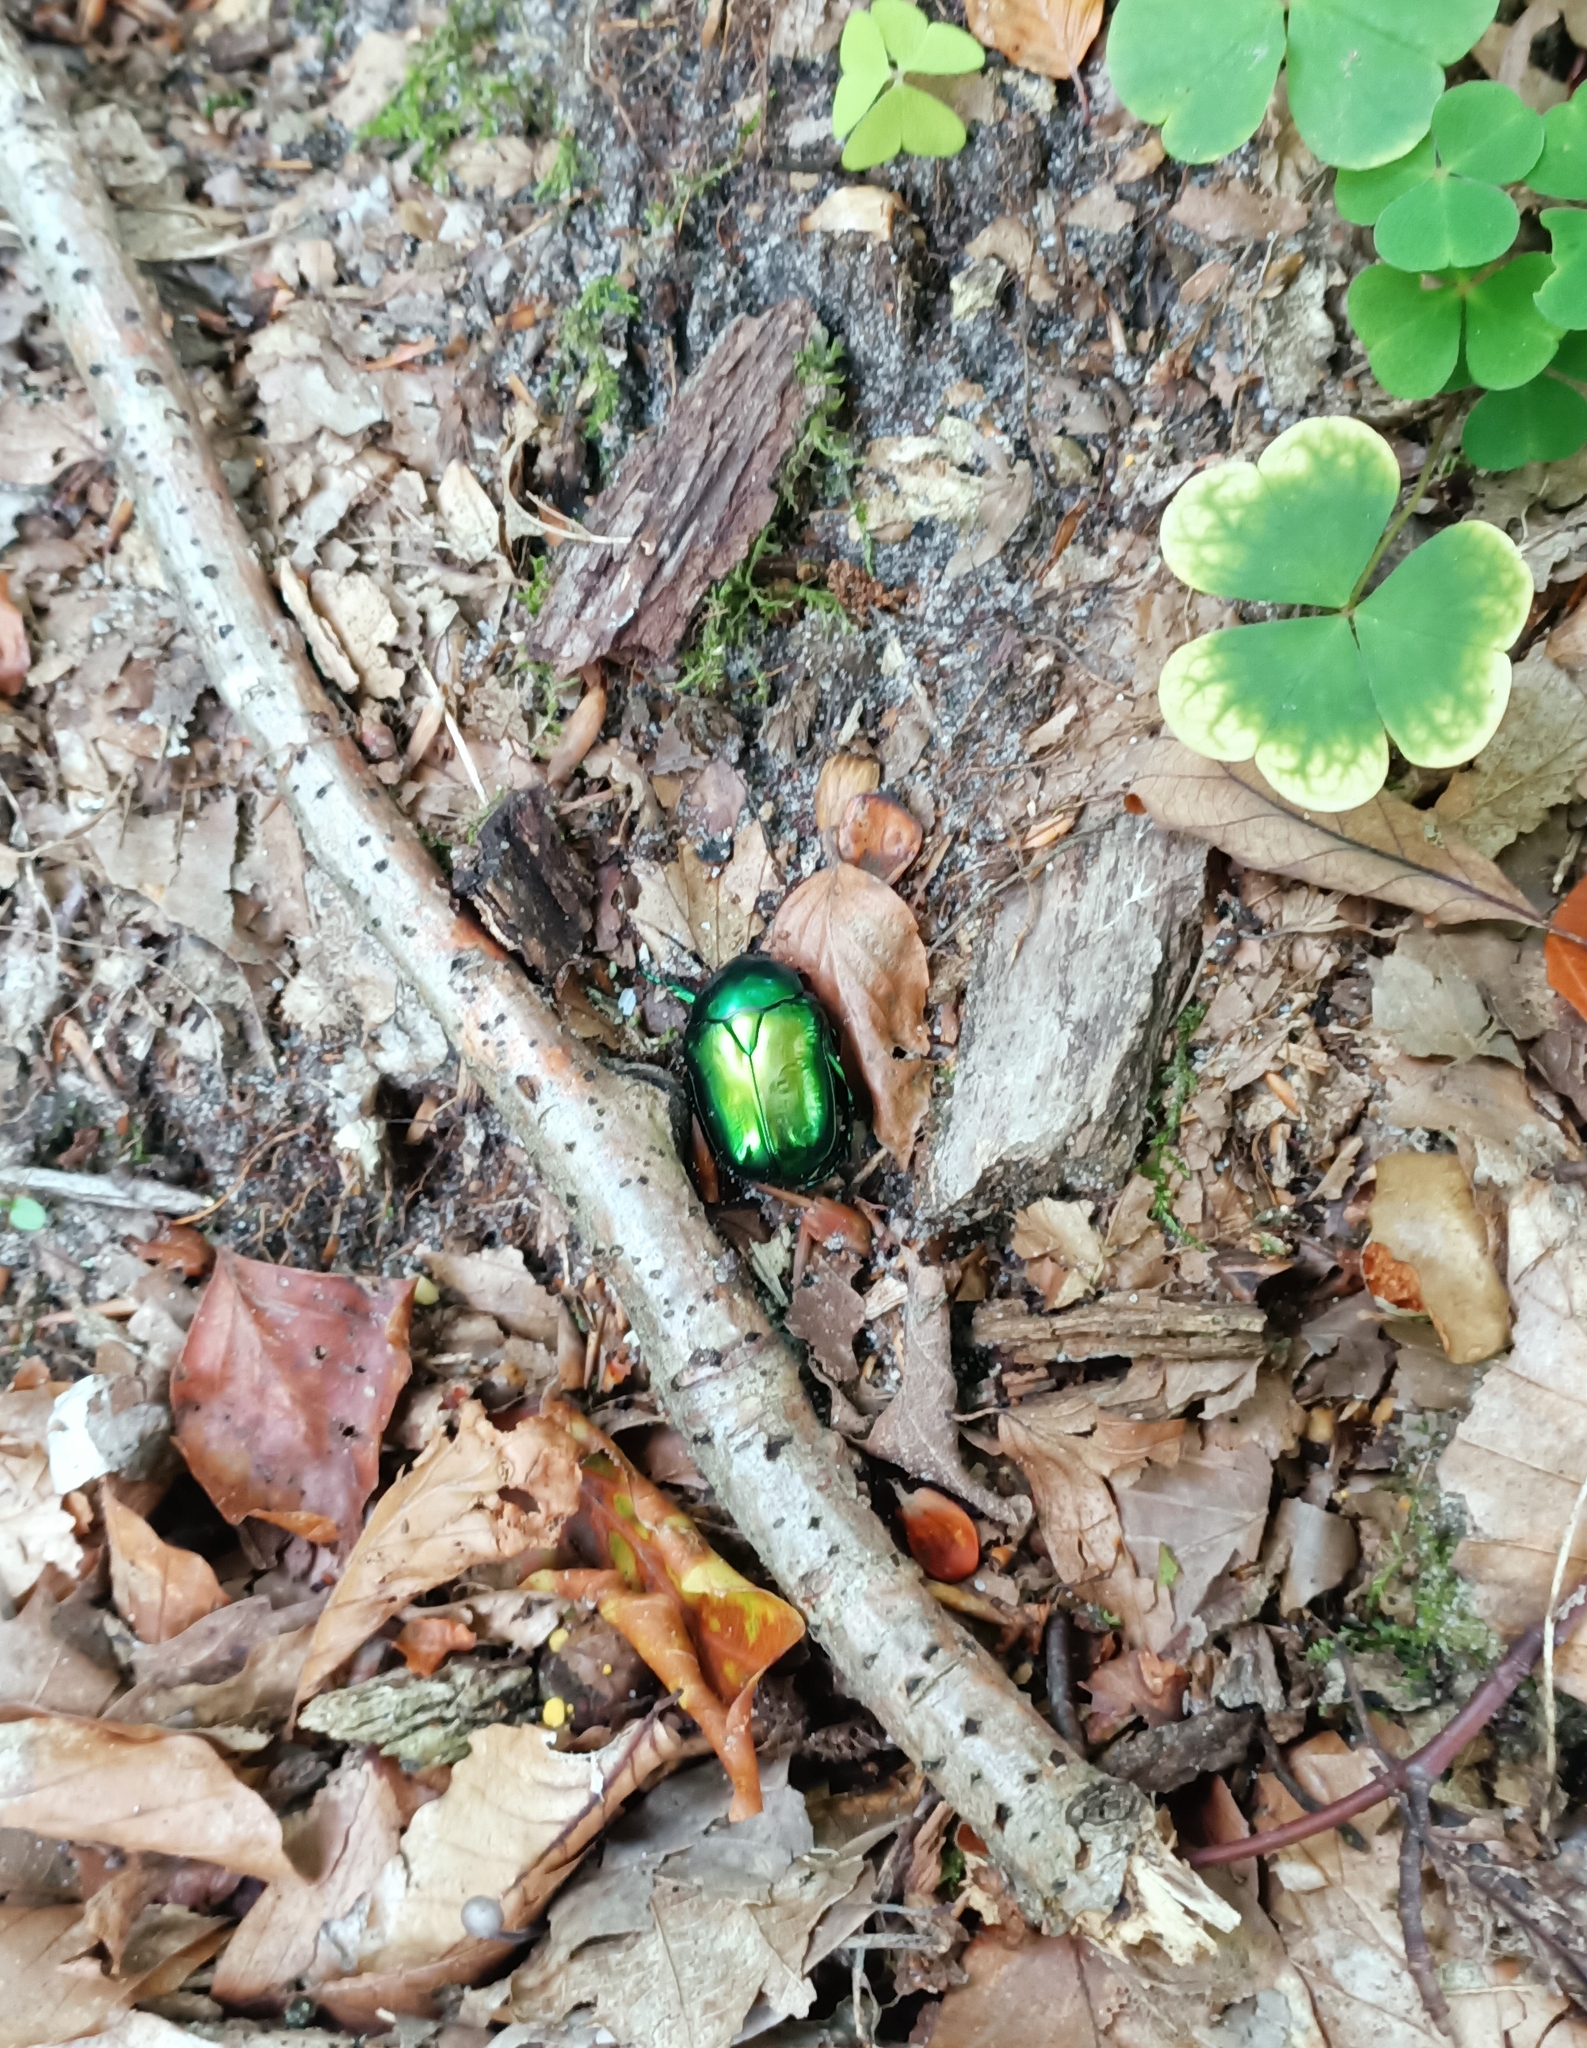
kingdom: Animalia
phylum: Arthropoda
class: Insecta
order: Coleoptera
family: Scarabaeidae
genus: Protaetia
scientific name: Protaetia speciosissima
